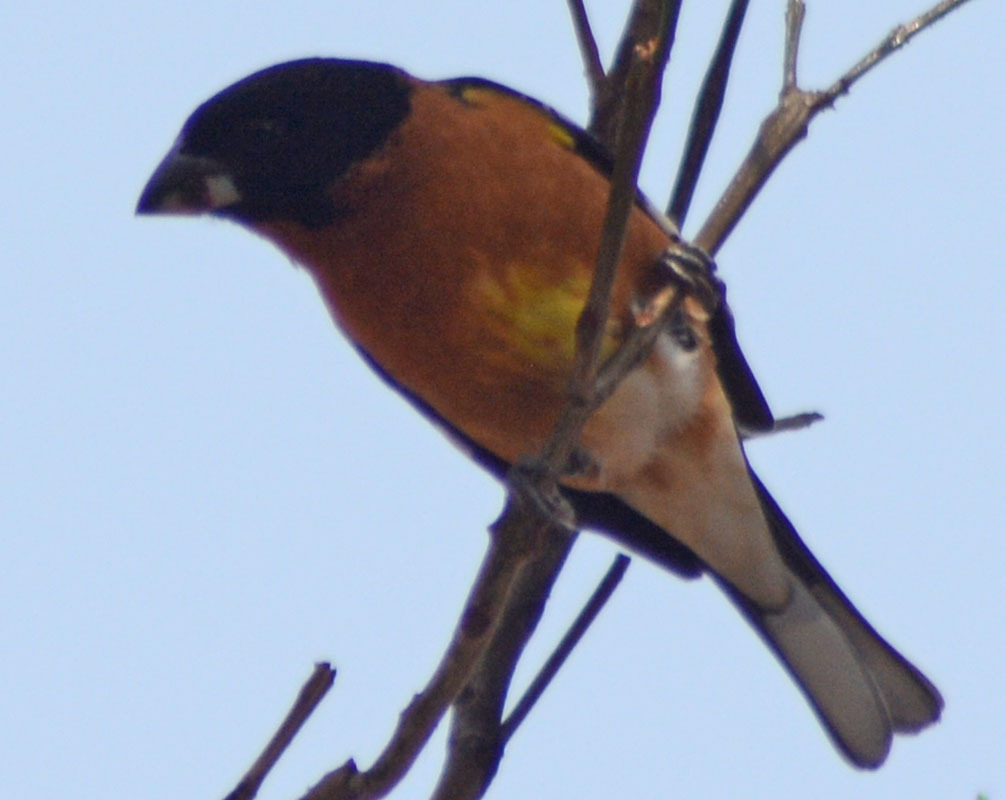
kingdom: Animalia
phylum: Chordata
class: Aves
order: Passeriformes
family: Cardinalidae
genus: Pheucticus
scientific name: Pheucticus melanocephalus
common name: Black-headed grosbeak
